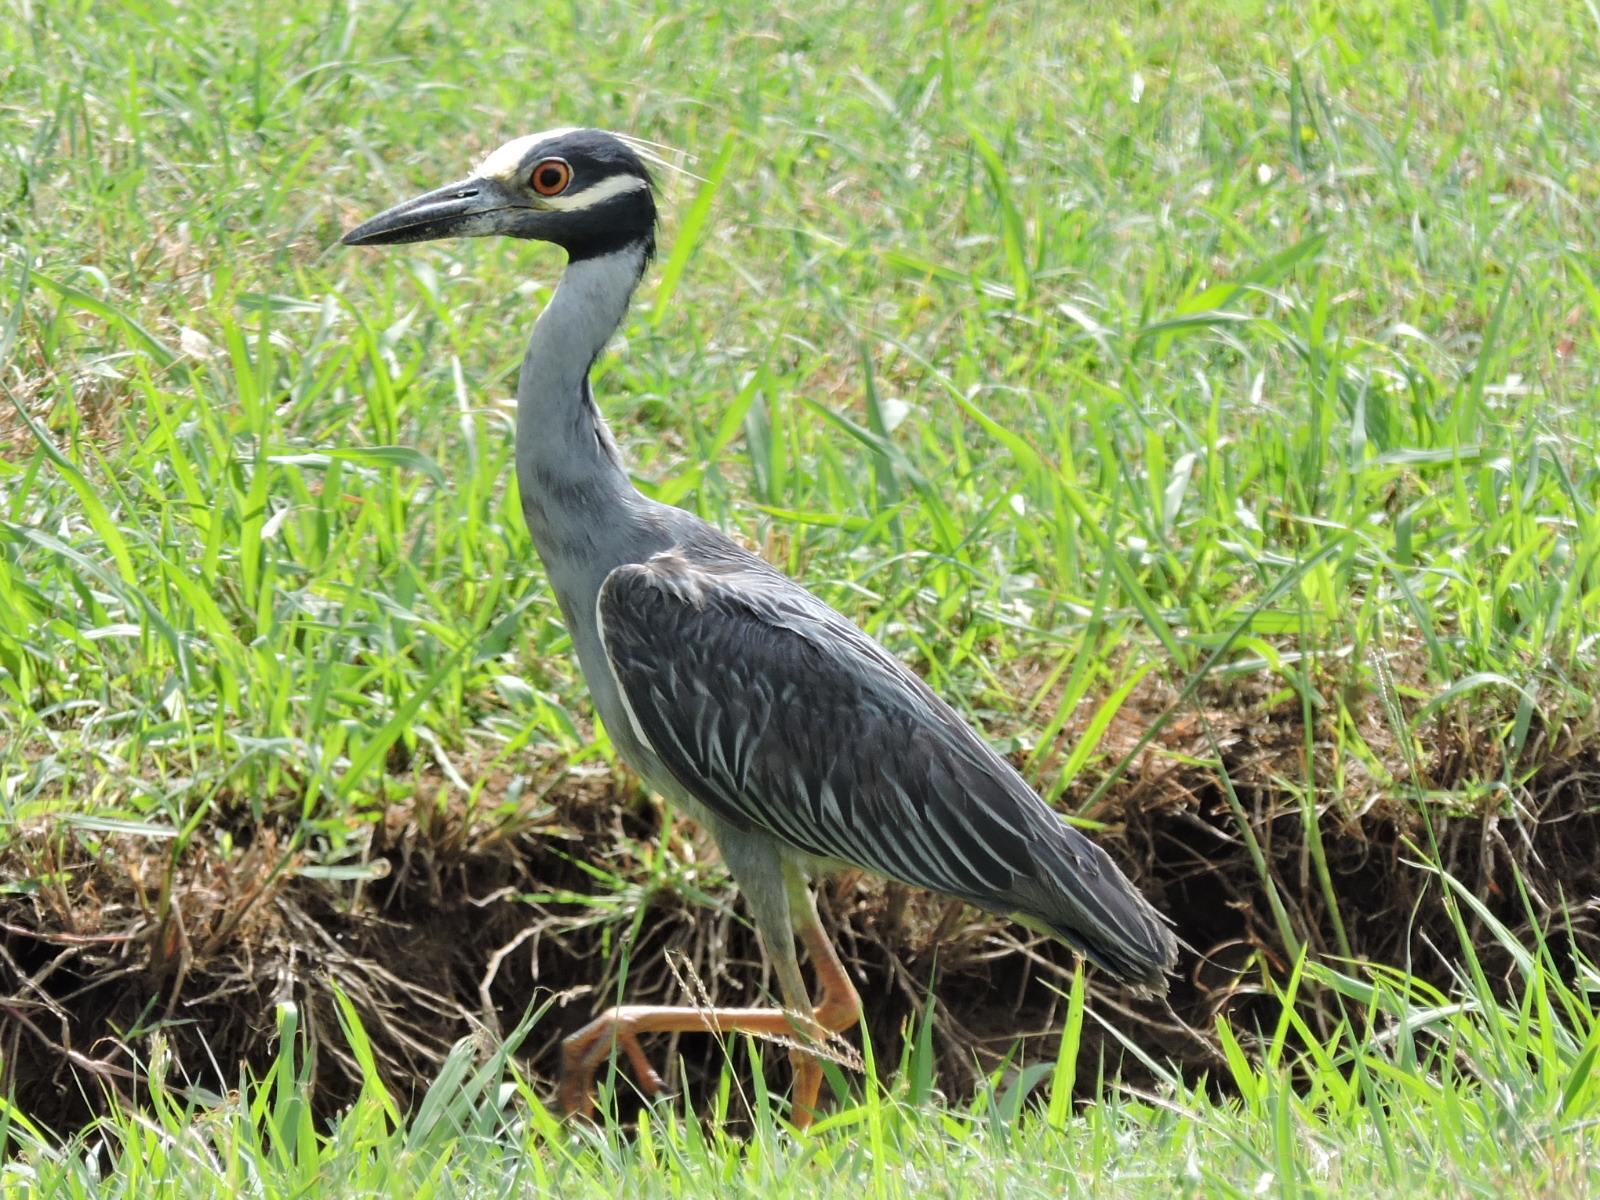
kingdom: Animalia
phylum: Chordata
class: Aves
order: Pelecaniformes
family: Ardeidae
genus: Nyctanassa
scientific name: Nyctanassa violacea
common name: Yellow-crowned night heron
